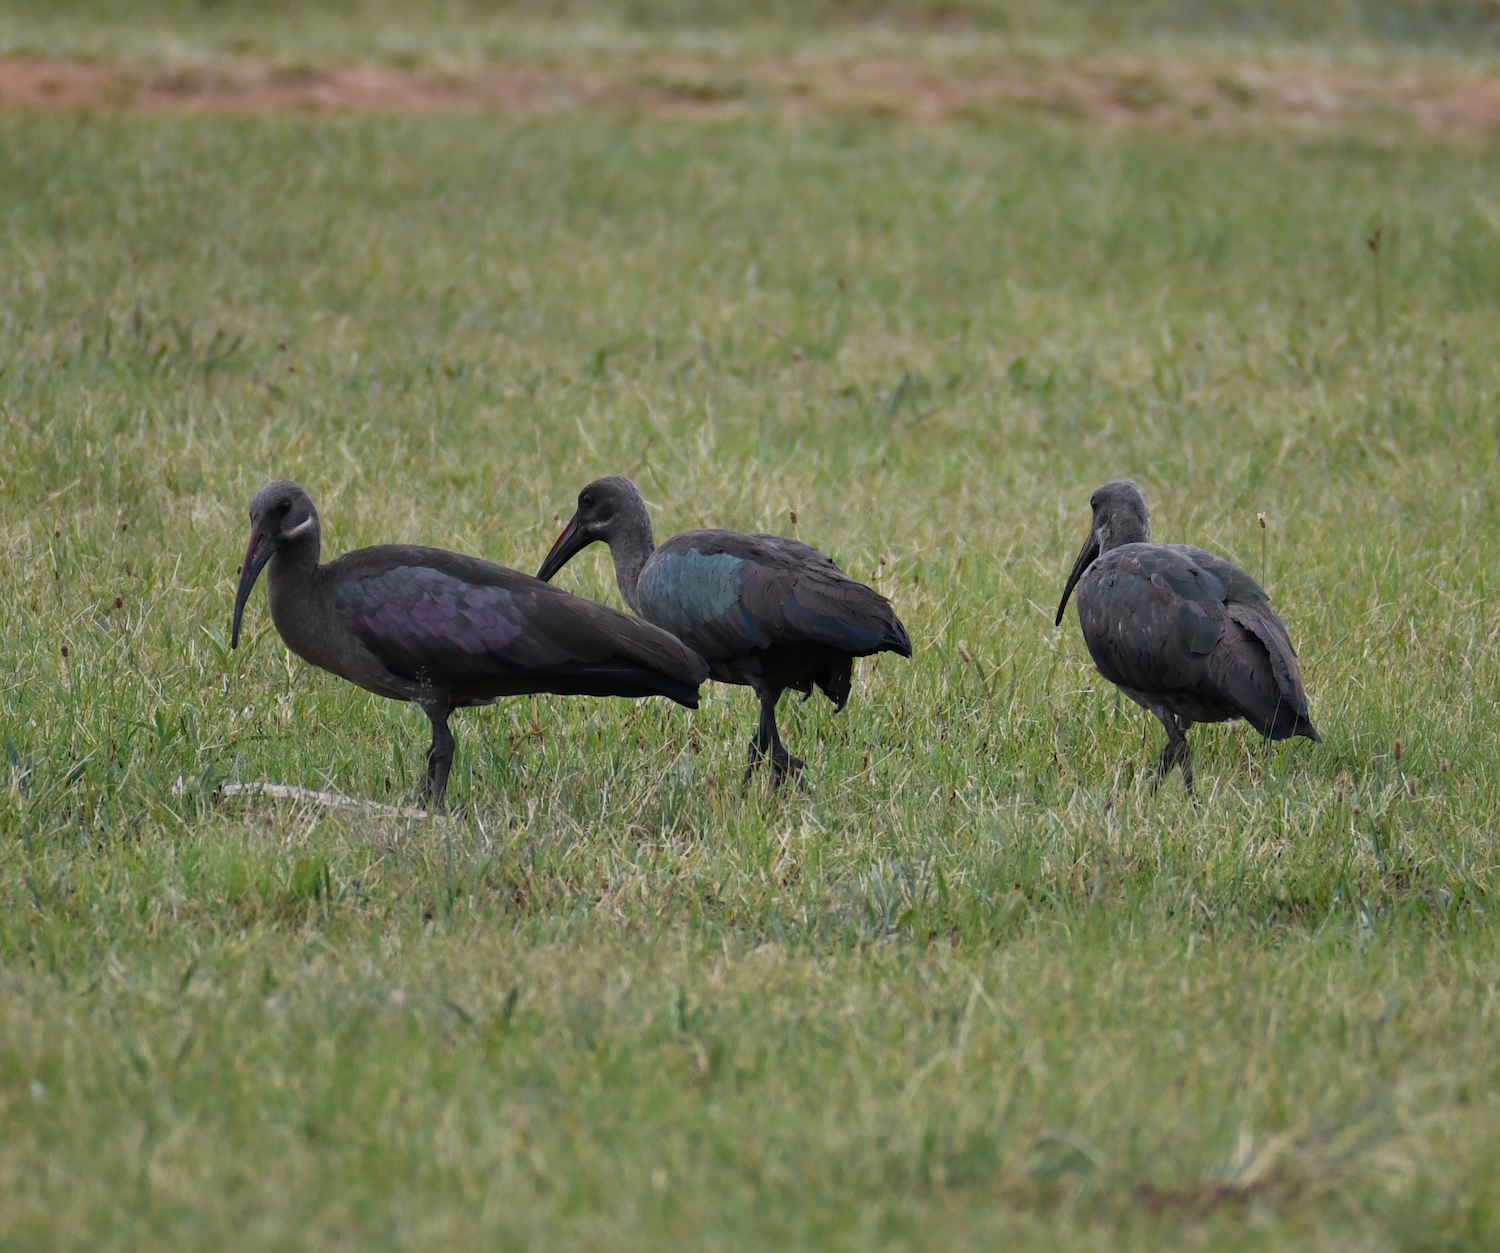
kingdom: Animalia
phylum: Chordata
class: Aves
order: Pelecaniformes
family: Threskiornithidae
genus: Bostrychia
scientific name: Bostrychia hagedash
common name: Hadada ibis
